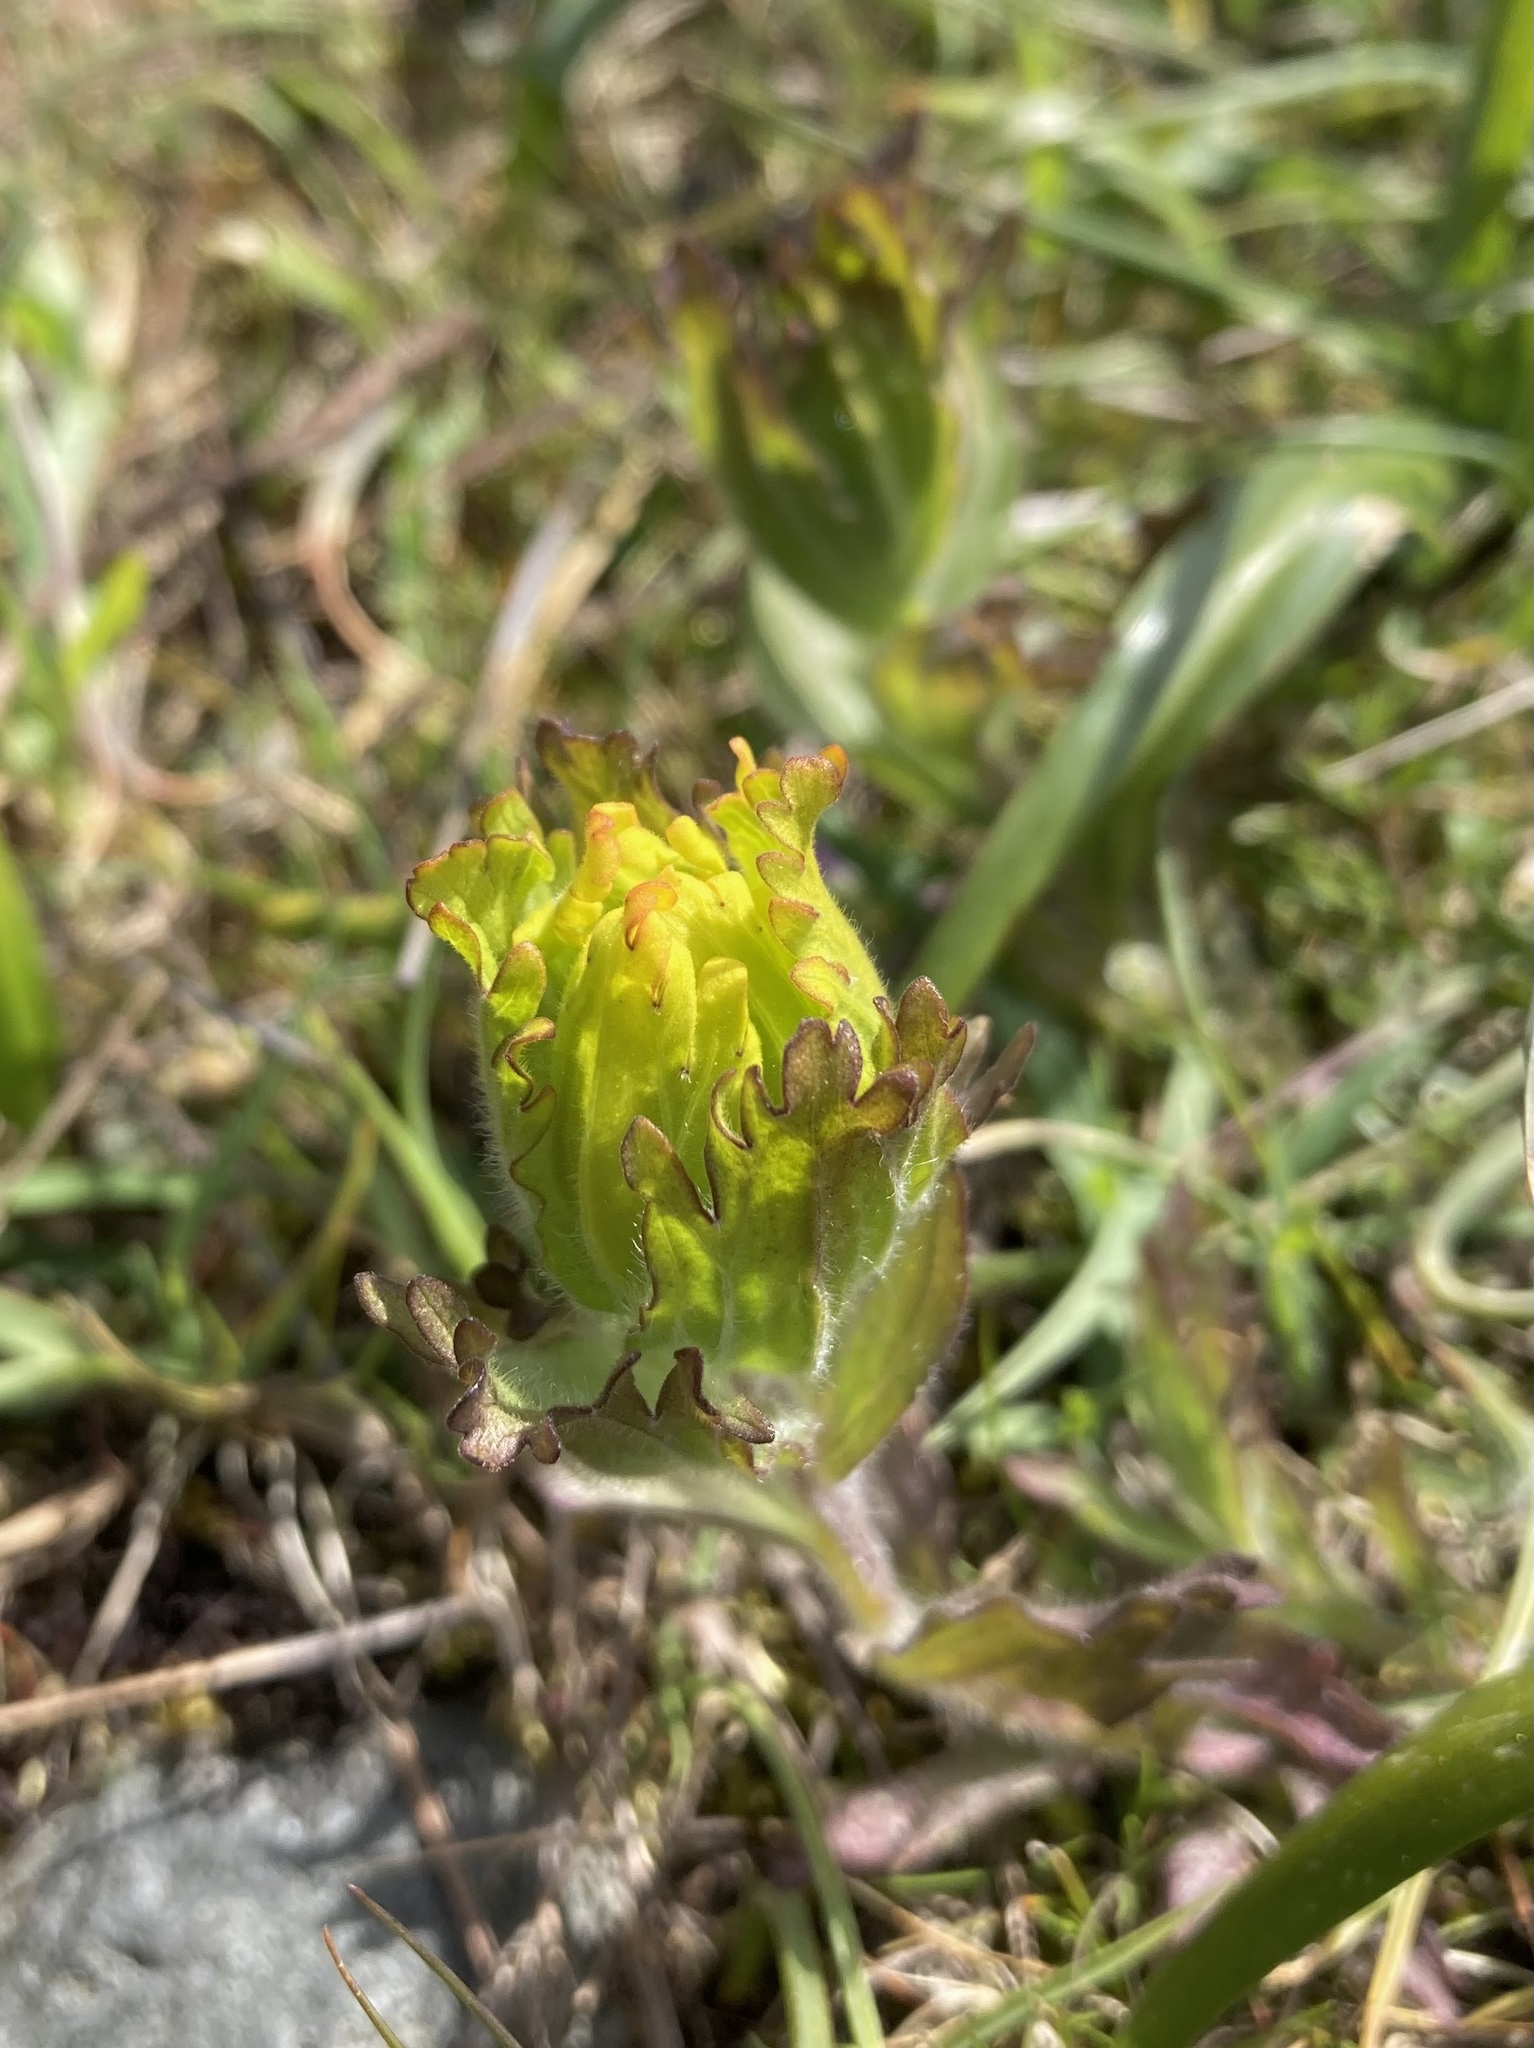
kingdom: Plantae
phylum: Tracheophyta
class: Magnoliopsida
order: Lamiales
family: Orobanchaceae
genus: Castilleja
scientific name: Castilleja levisecta
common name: Golden paintbrush
